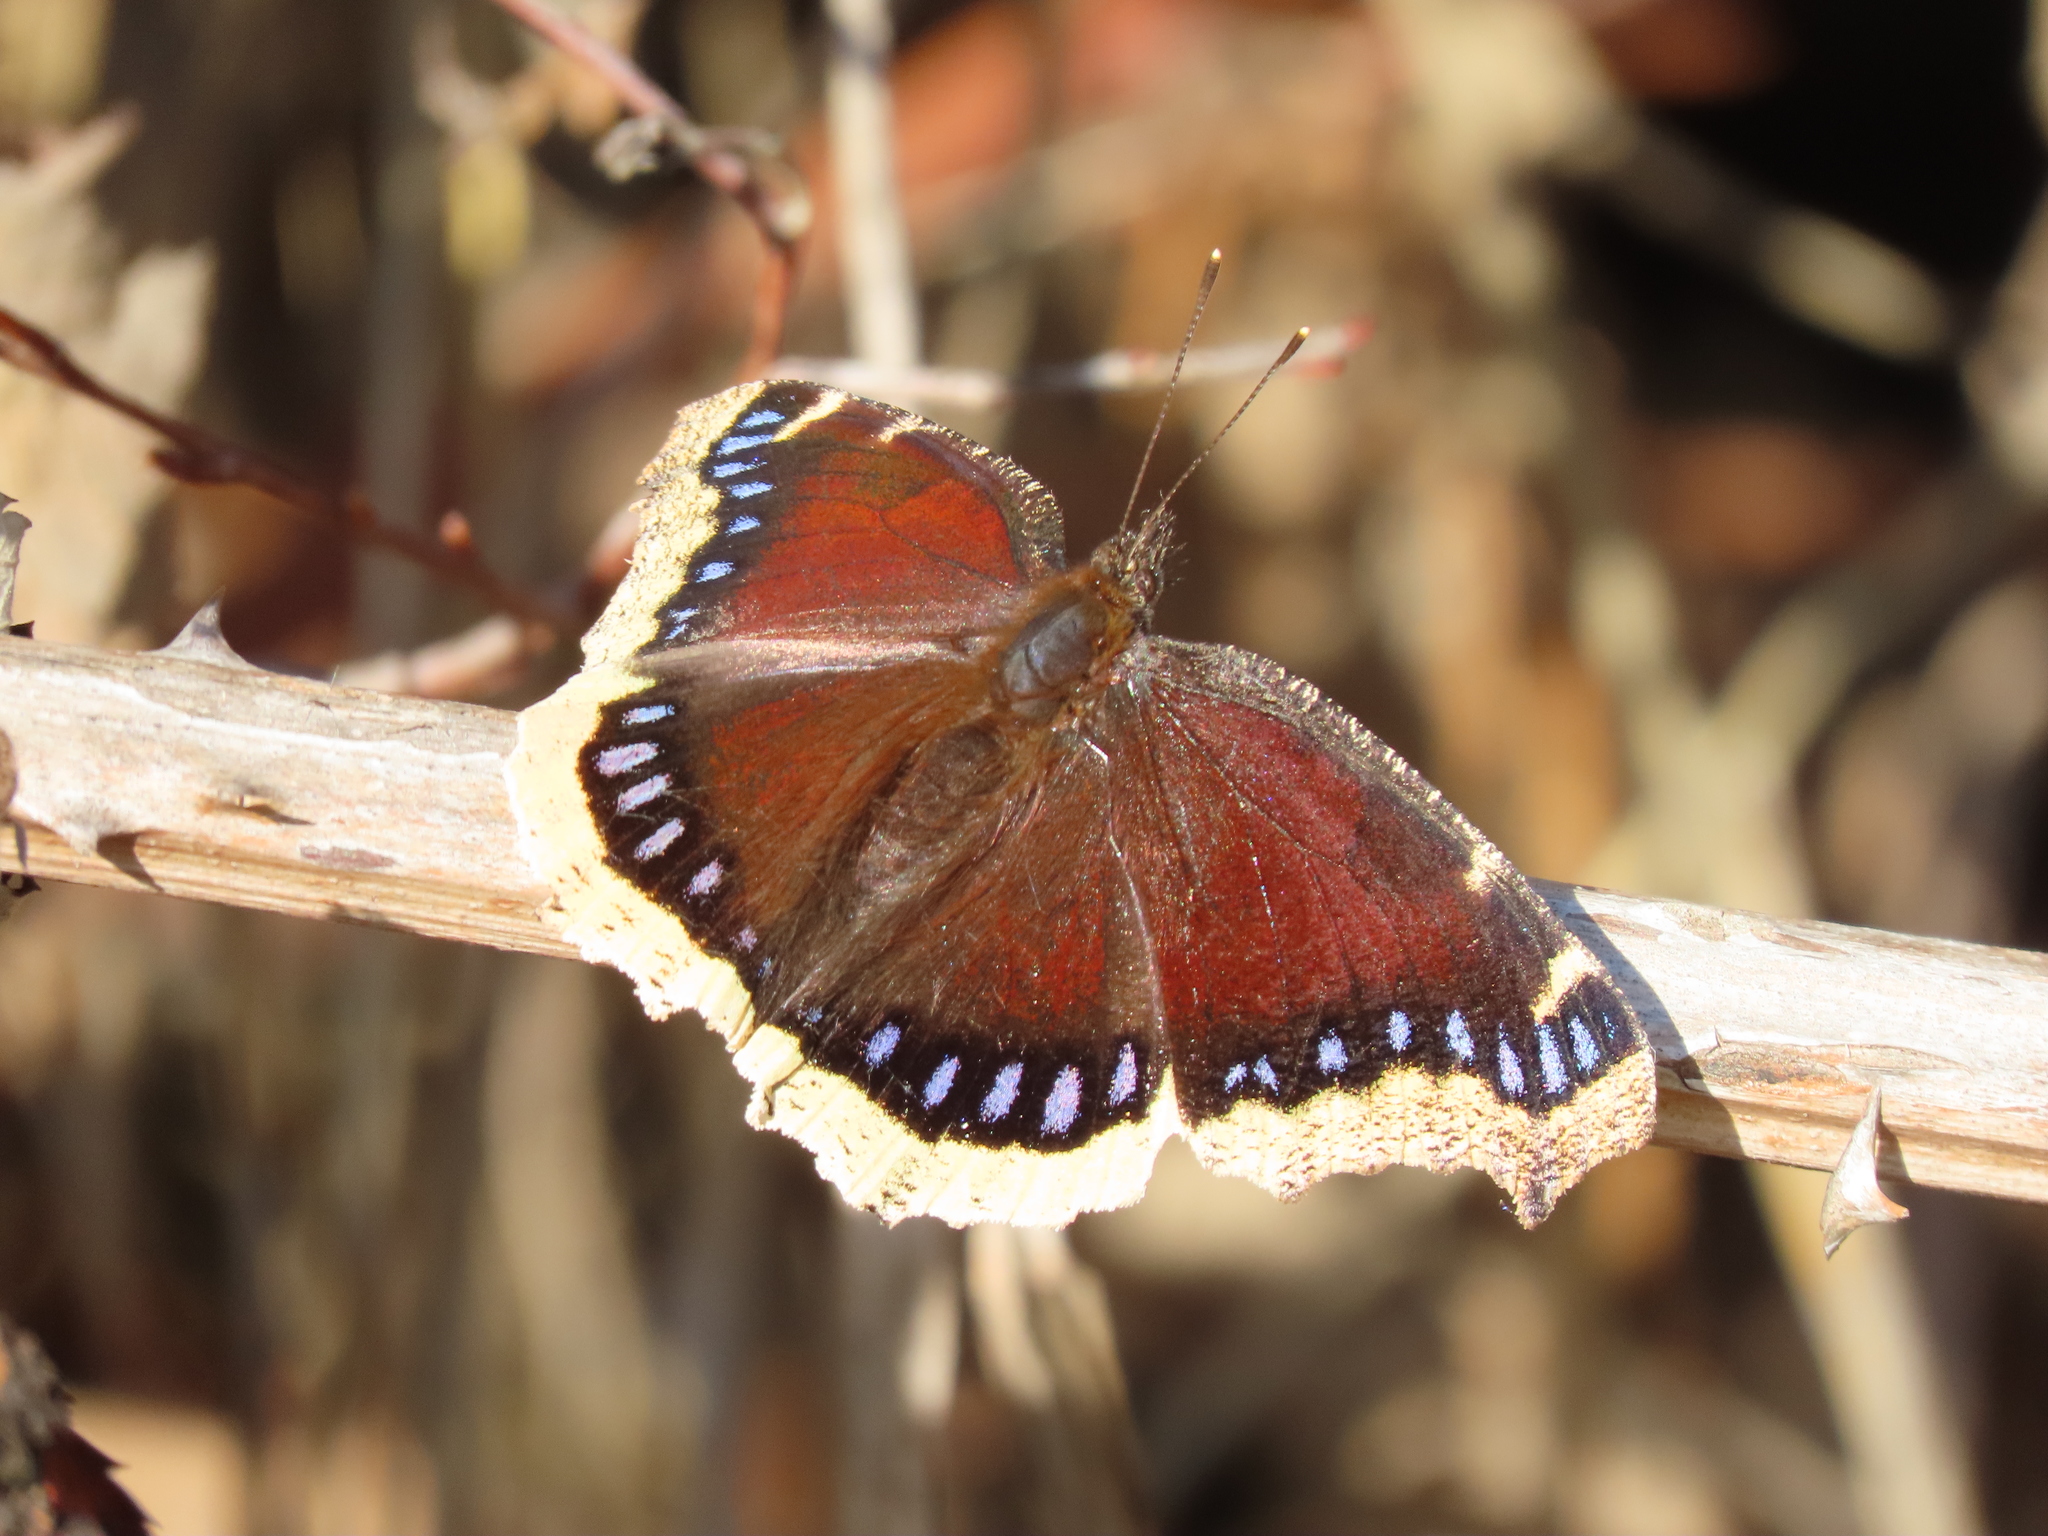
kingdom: Animalia
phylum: Arthropoda
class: Insecta
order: Lepidoptera
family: Nymphalidae
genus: Nymphalis
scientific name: Nymphalis antiopa
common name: Camberwell beauty
